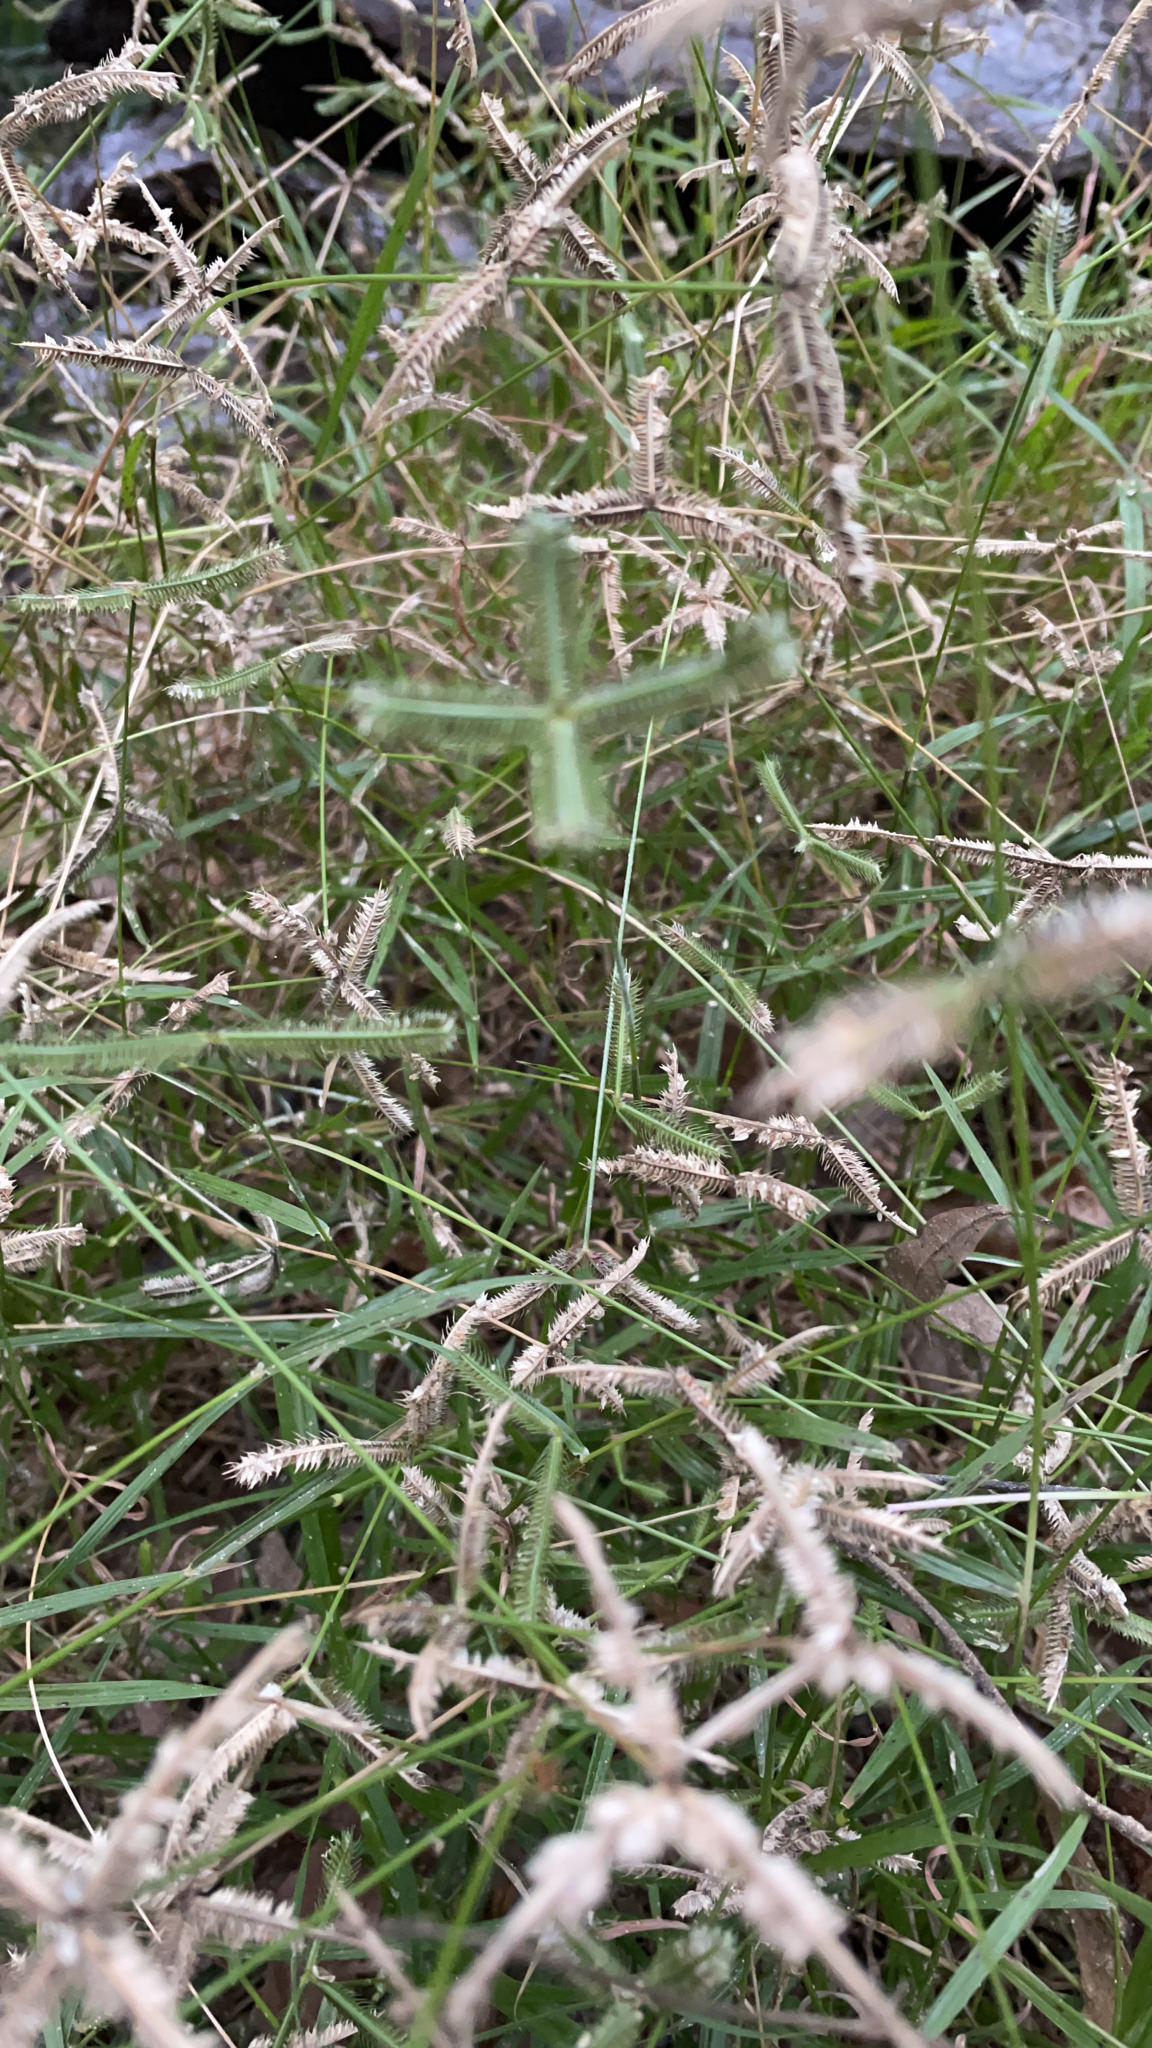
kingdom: Plantae
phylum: Tracheophyta
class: Liliopsida
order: Poales
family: Poaceae
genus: Dactyloctenium
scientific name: Dactyloctenium aegyptium
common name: Egyptian grass
